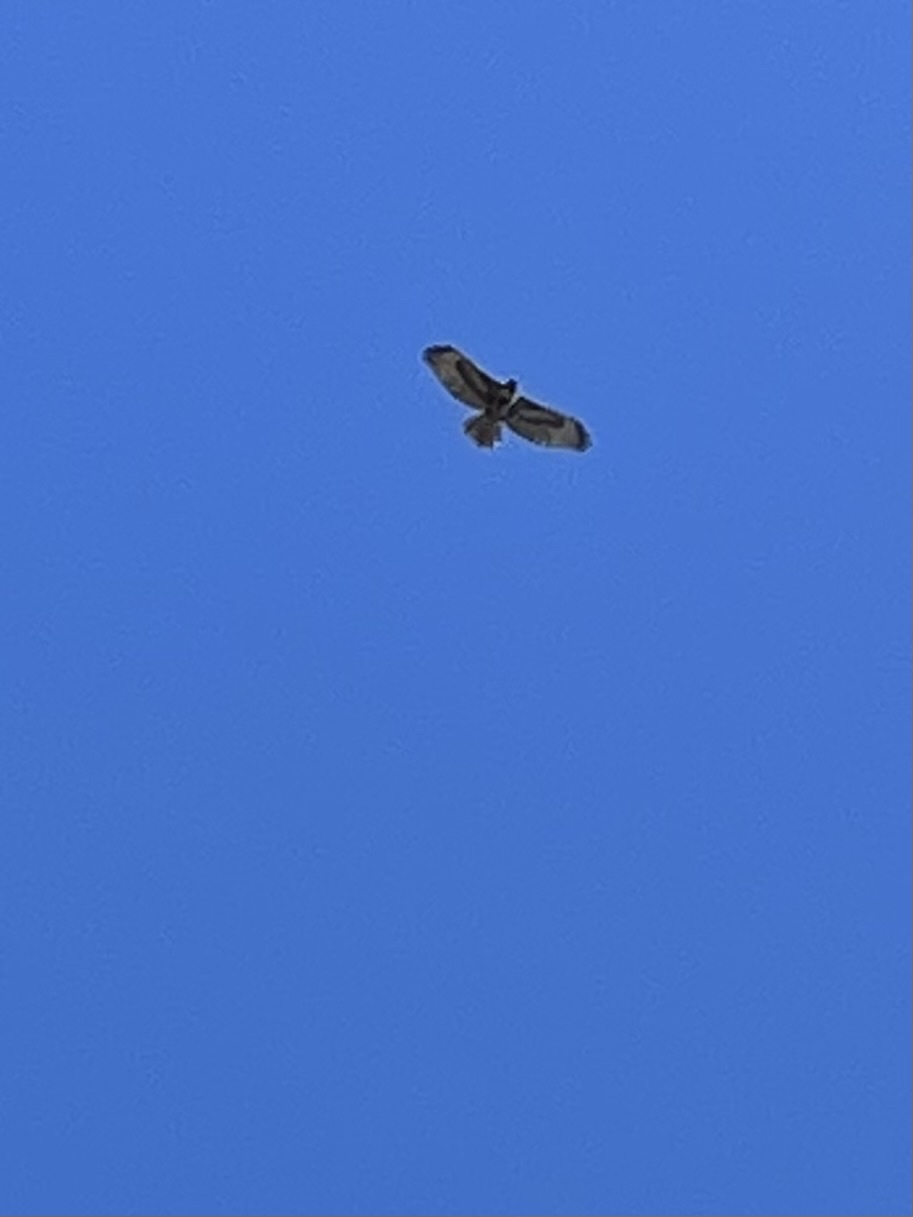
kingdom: Animalia
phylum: Chordata
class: Aves
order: Accipitriformes
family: Accipitridae
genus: Buteo
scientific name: Buteo jamaicensis
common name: Red-tailed hawk
